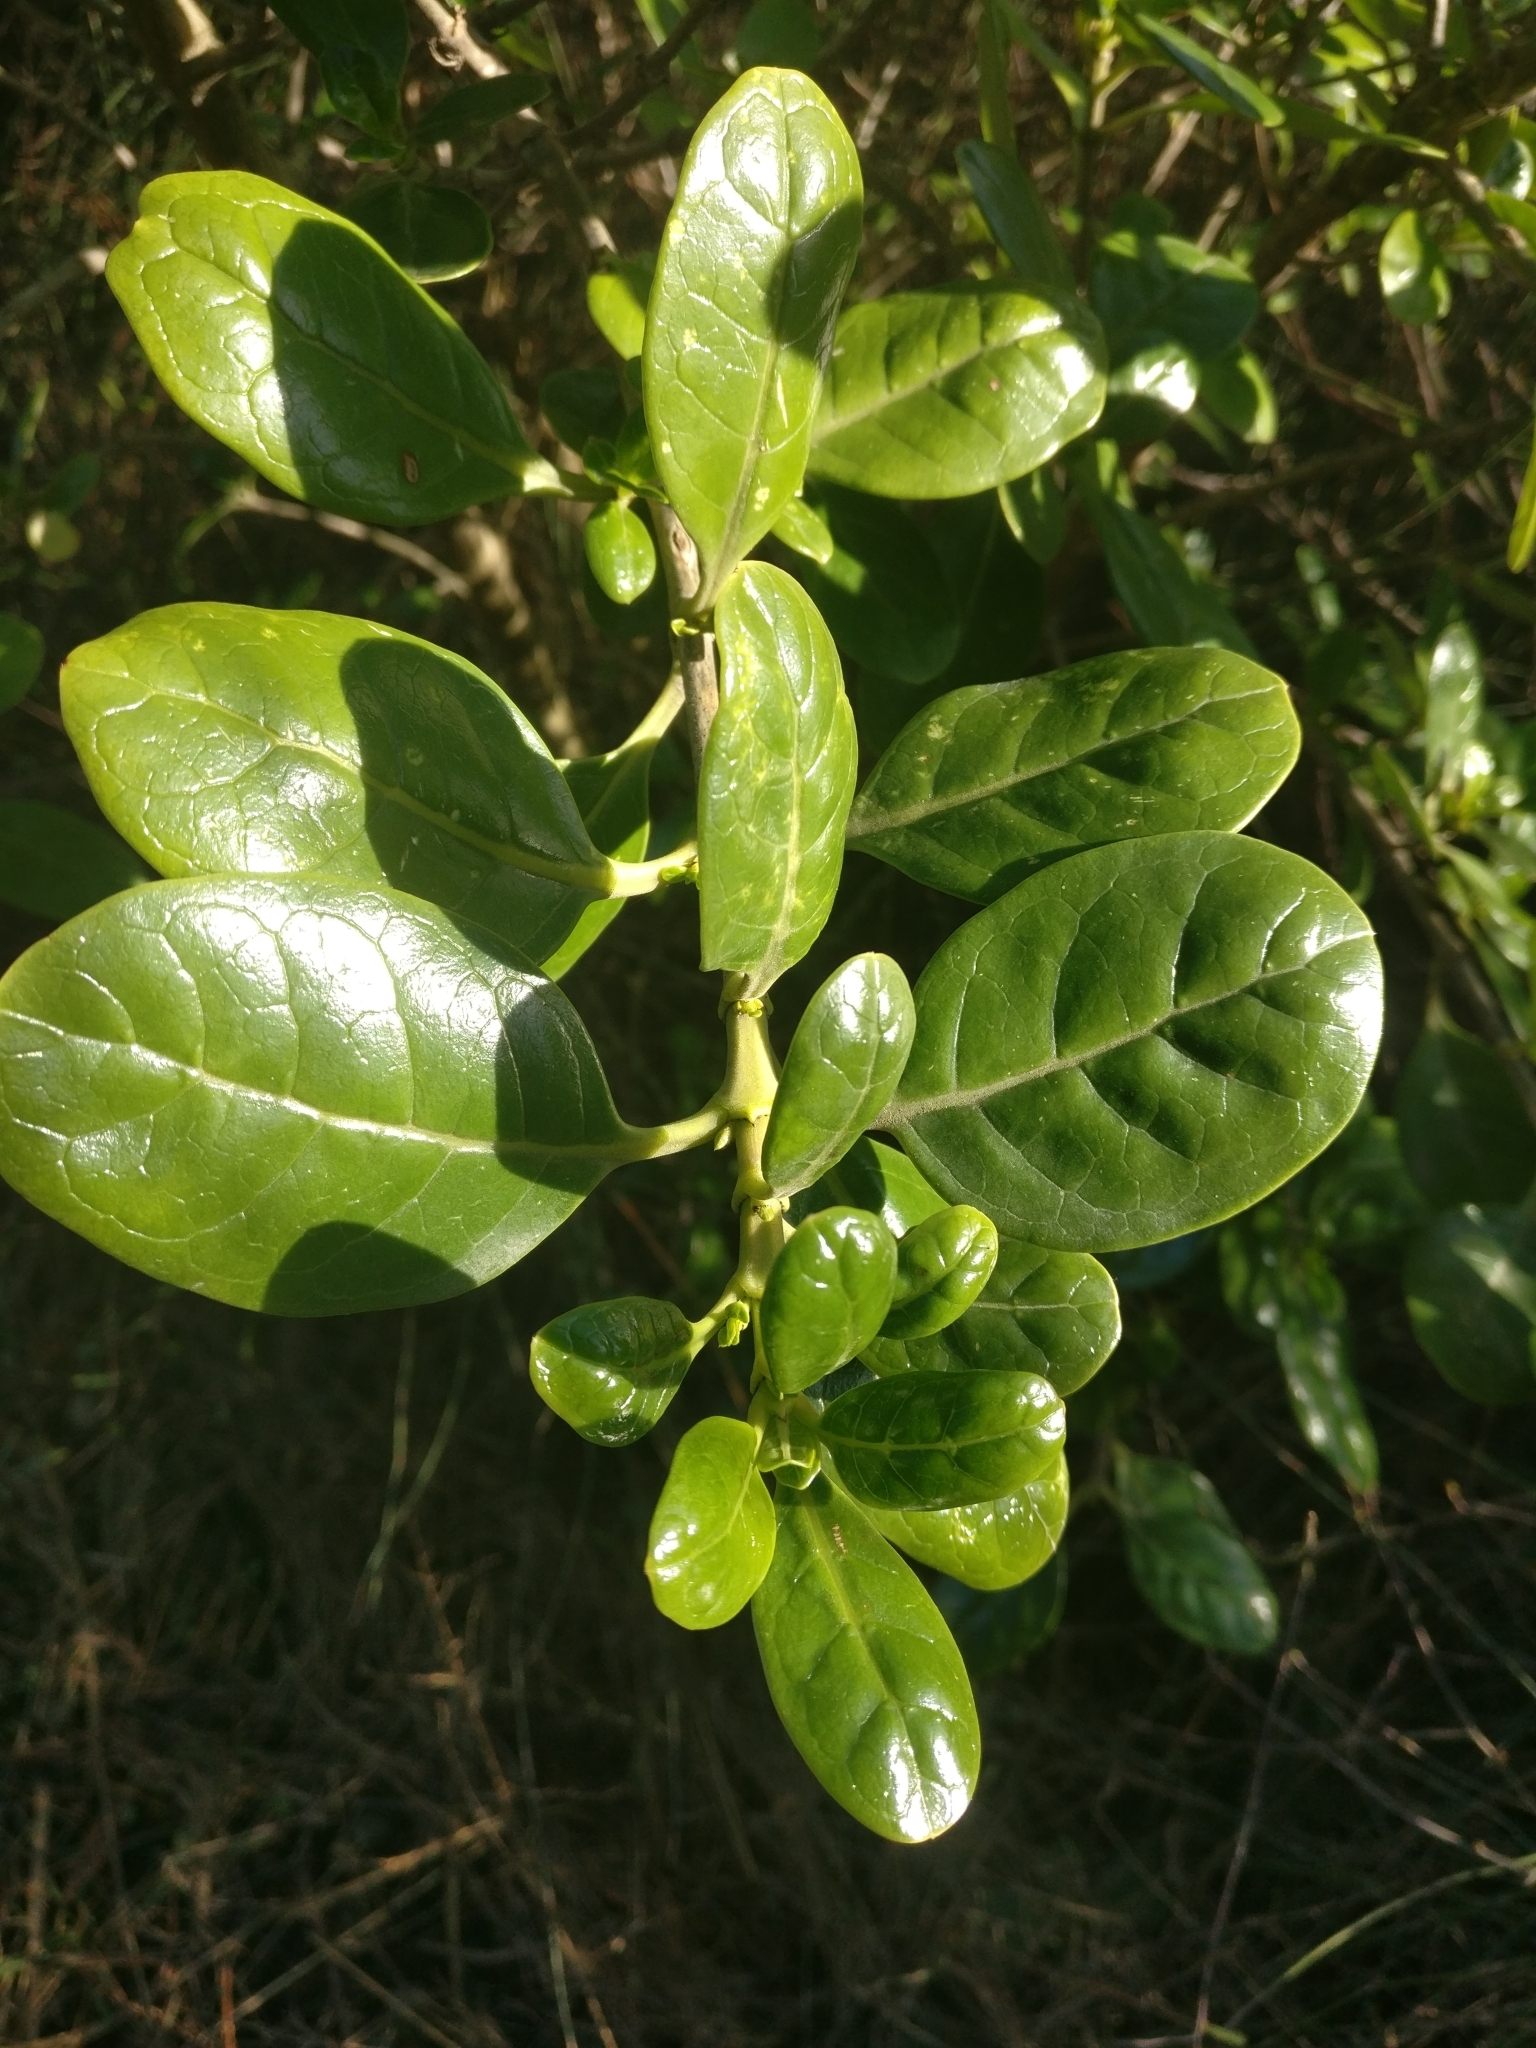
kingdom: Plantae
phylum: Tracheophyta
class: Magnoliopsida
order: Gentianales
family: Rubiaceae
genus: Coprosma
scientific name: Coprosma repens
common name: Tree bedstraw
